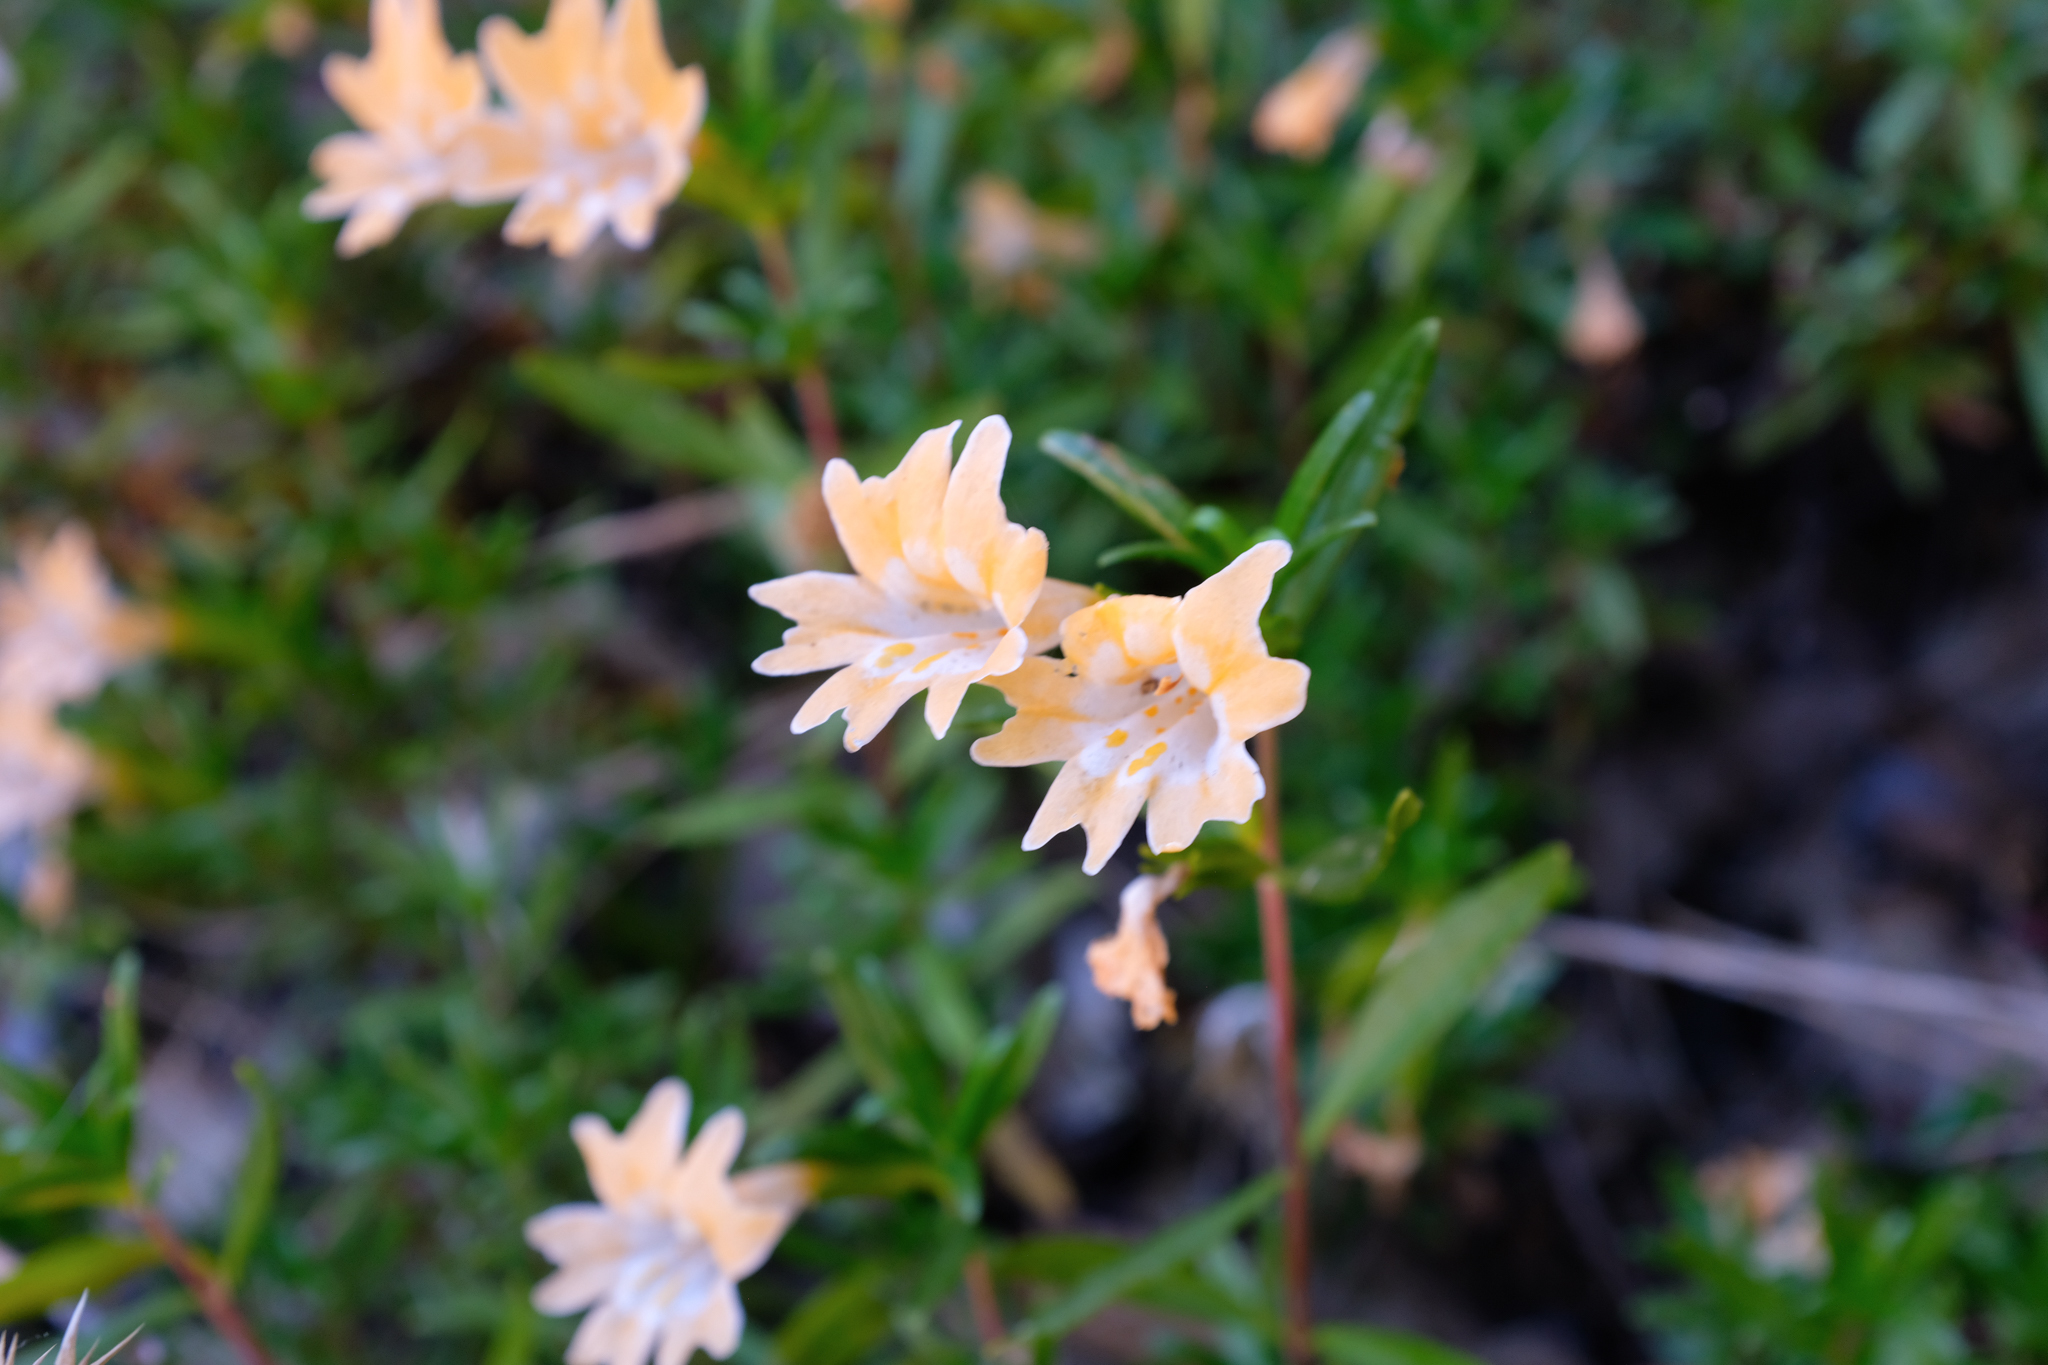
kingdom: Plantae
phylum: Tracheophyta
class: Magnoliopsida
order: Lamiales
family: Phrymaceae
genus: Diplacus
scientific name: Diplacus linearis
